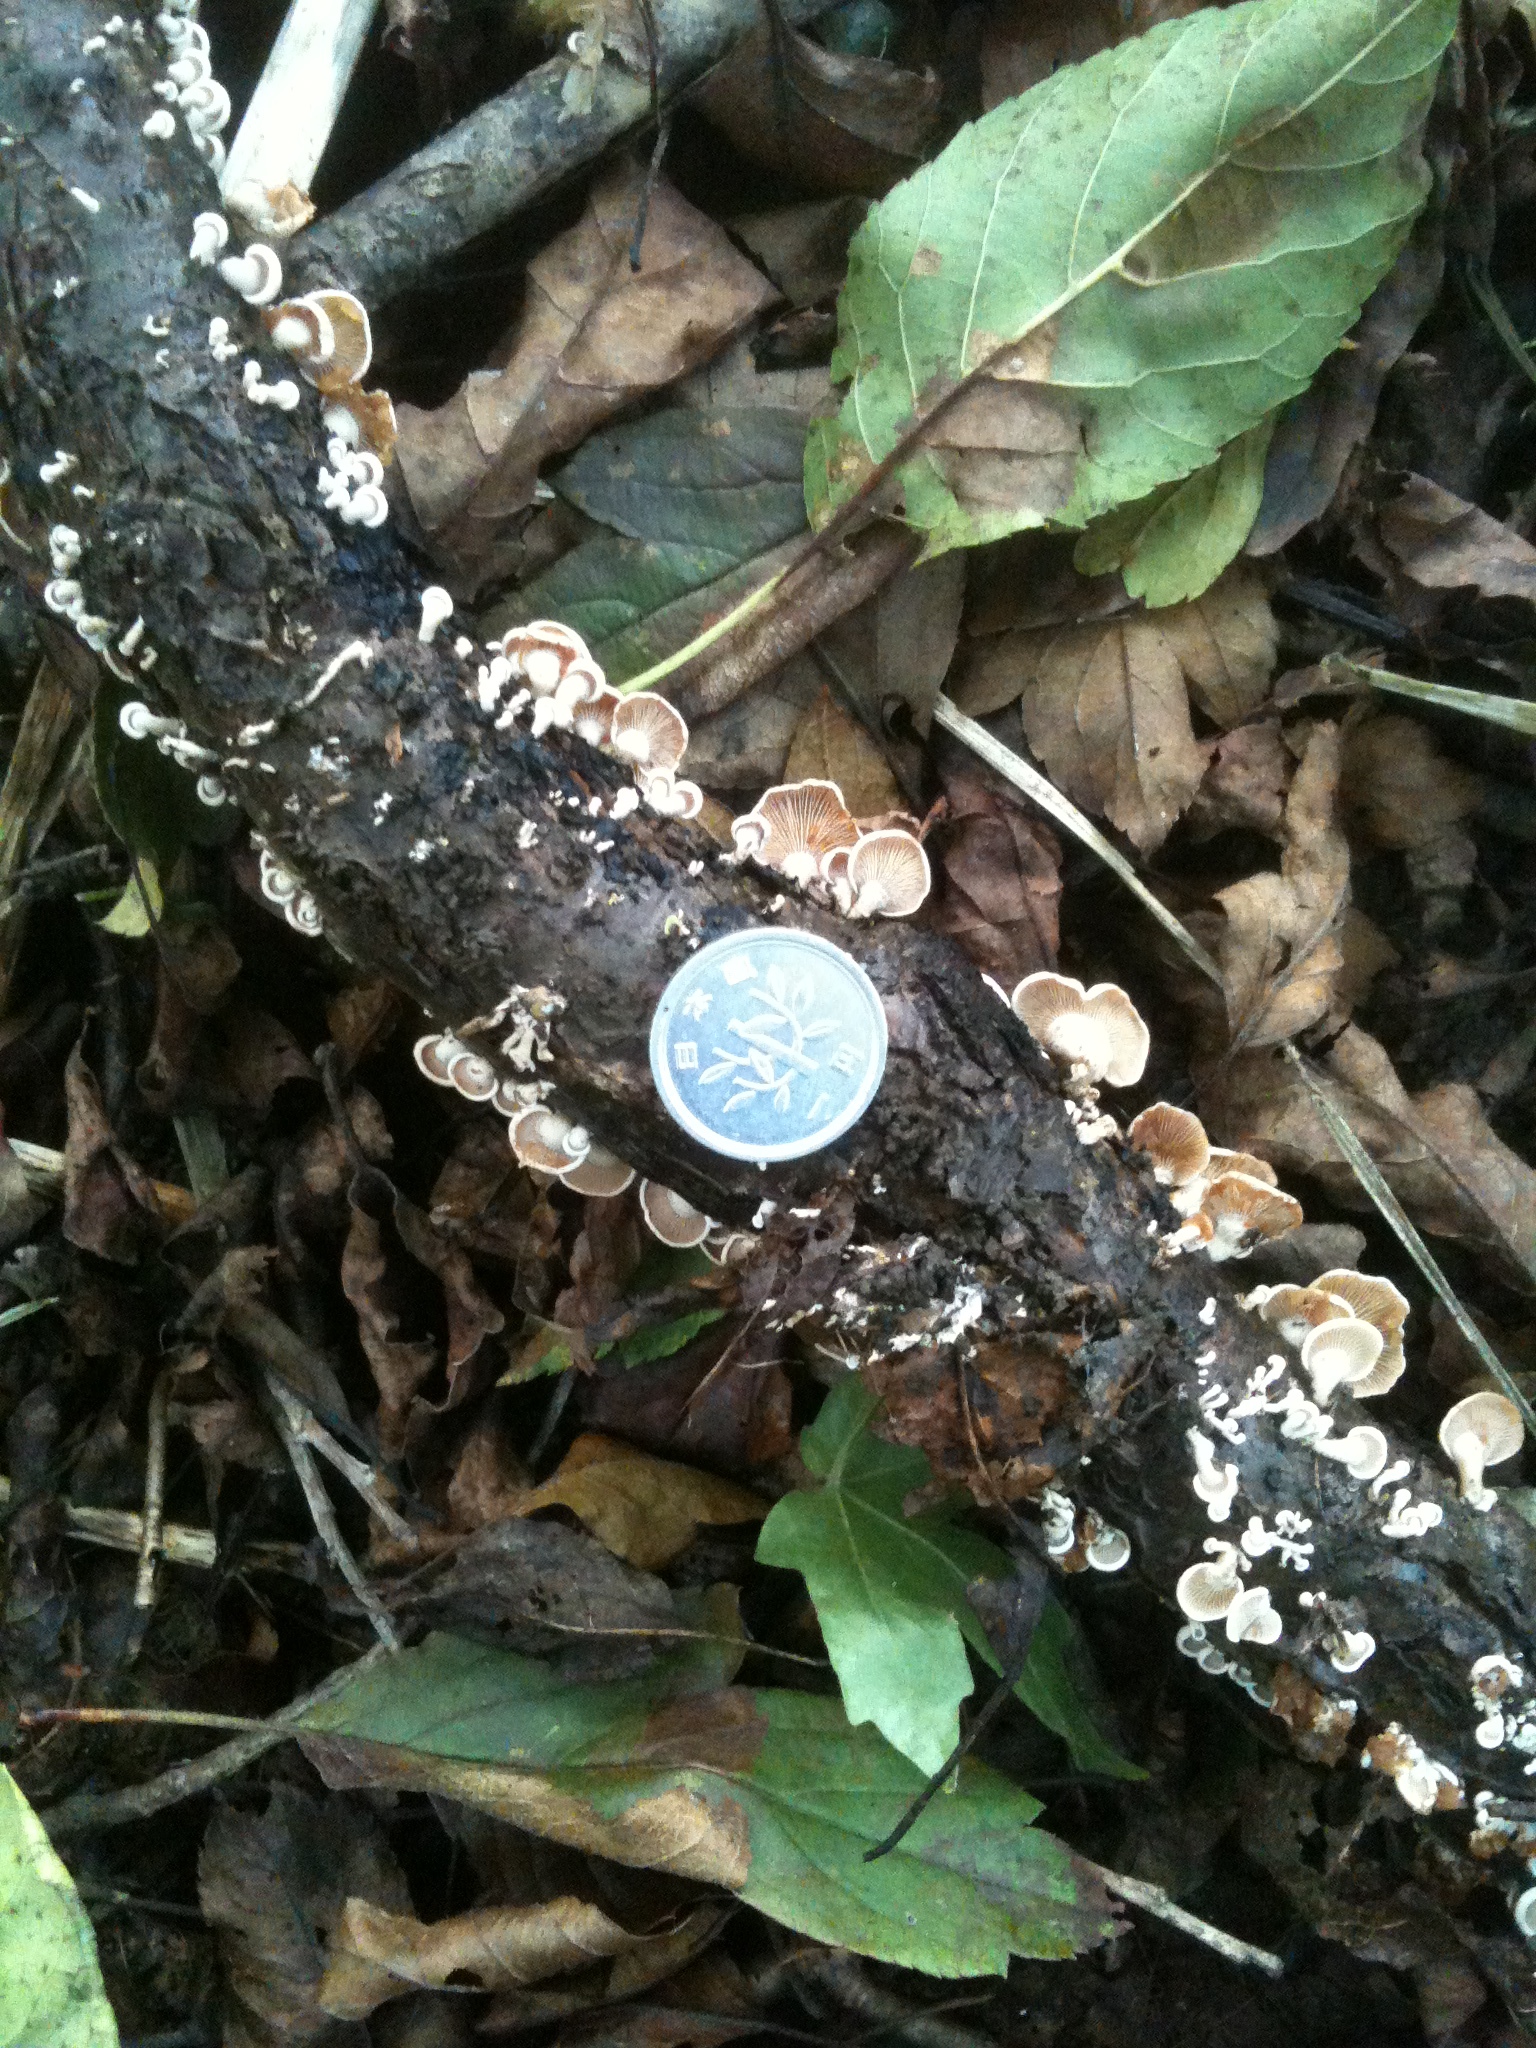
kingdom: Fungi
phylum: Basidiomycota
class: Agaricomycetes
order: Agaricales
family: Mycenaceae
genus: Panellus
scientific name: Panellus stipticus
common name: Bitter oysterling
